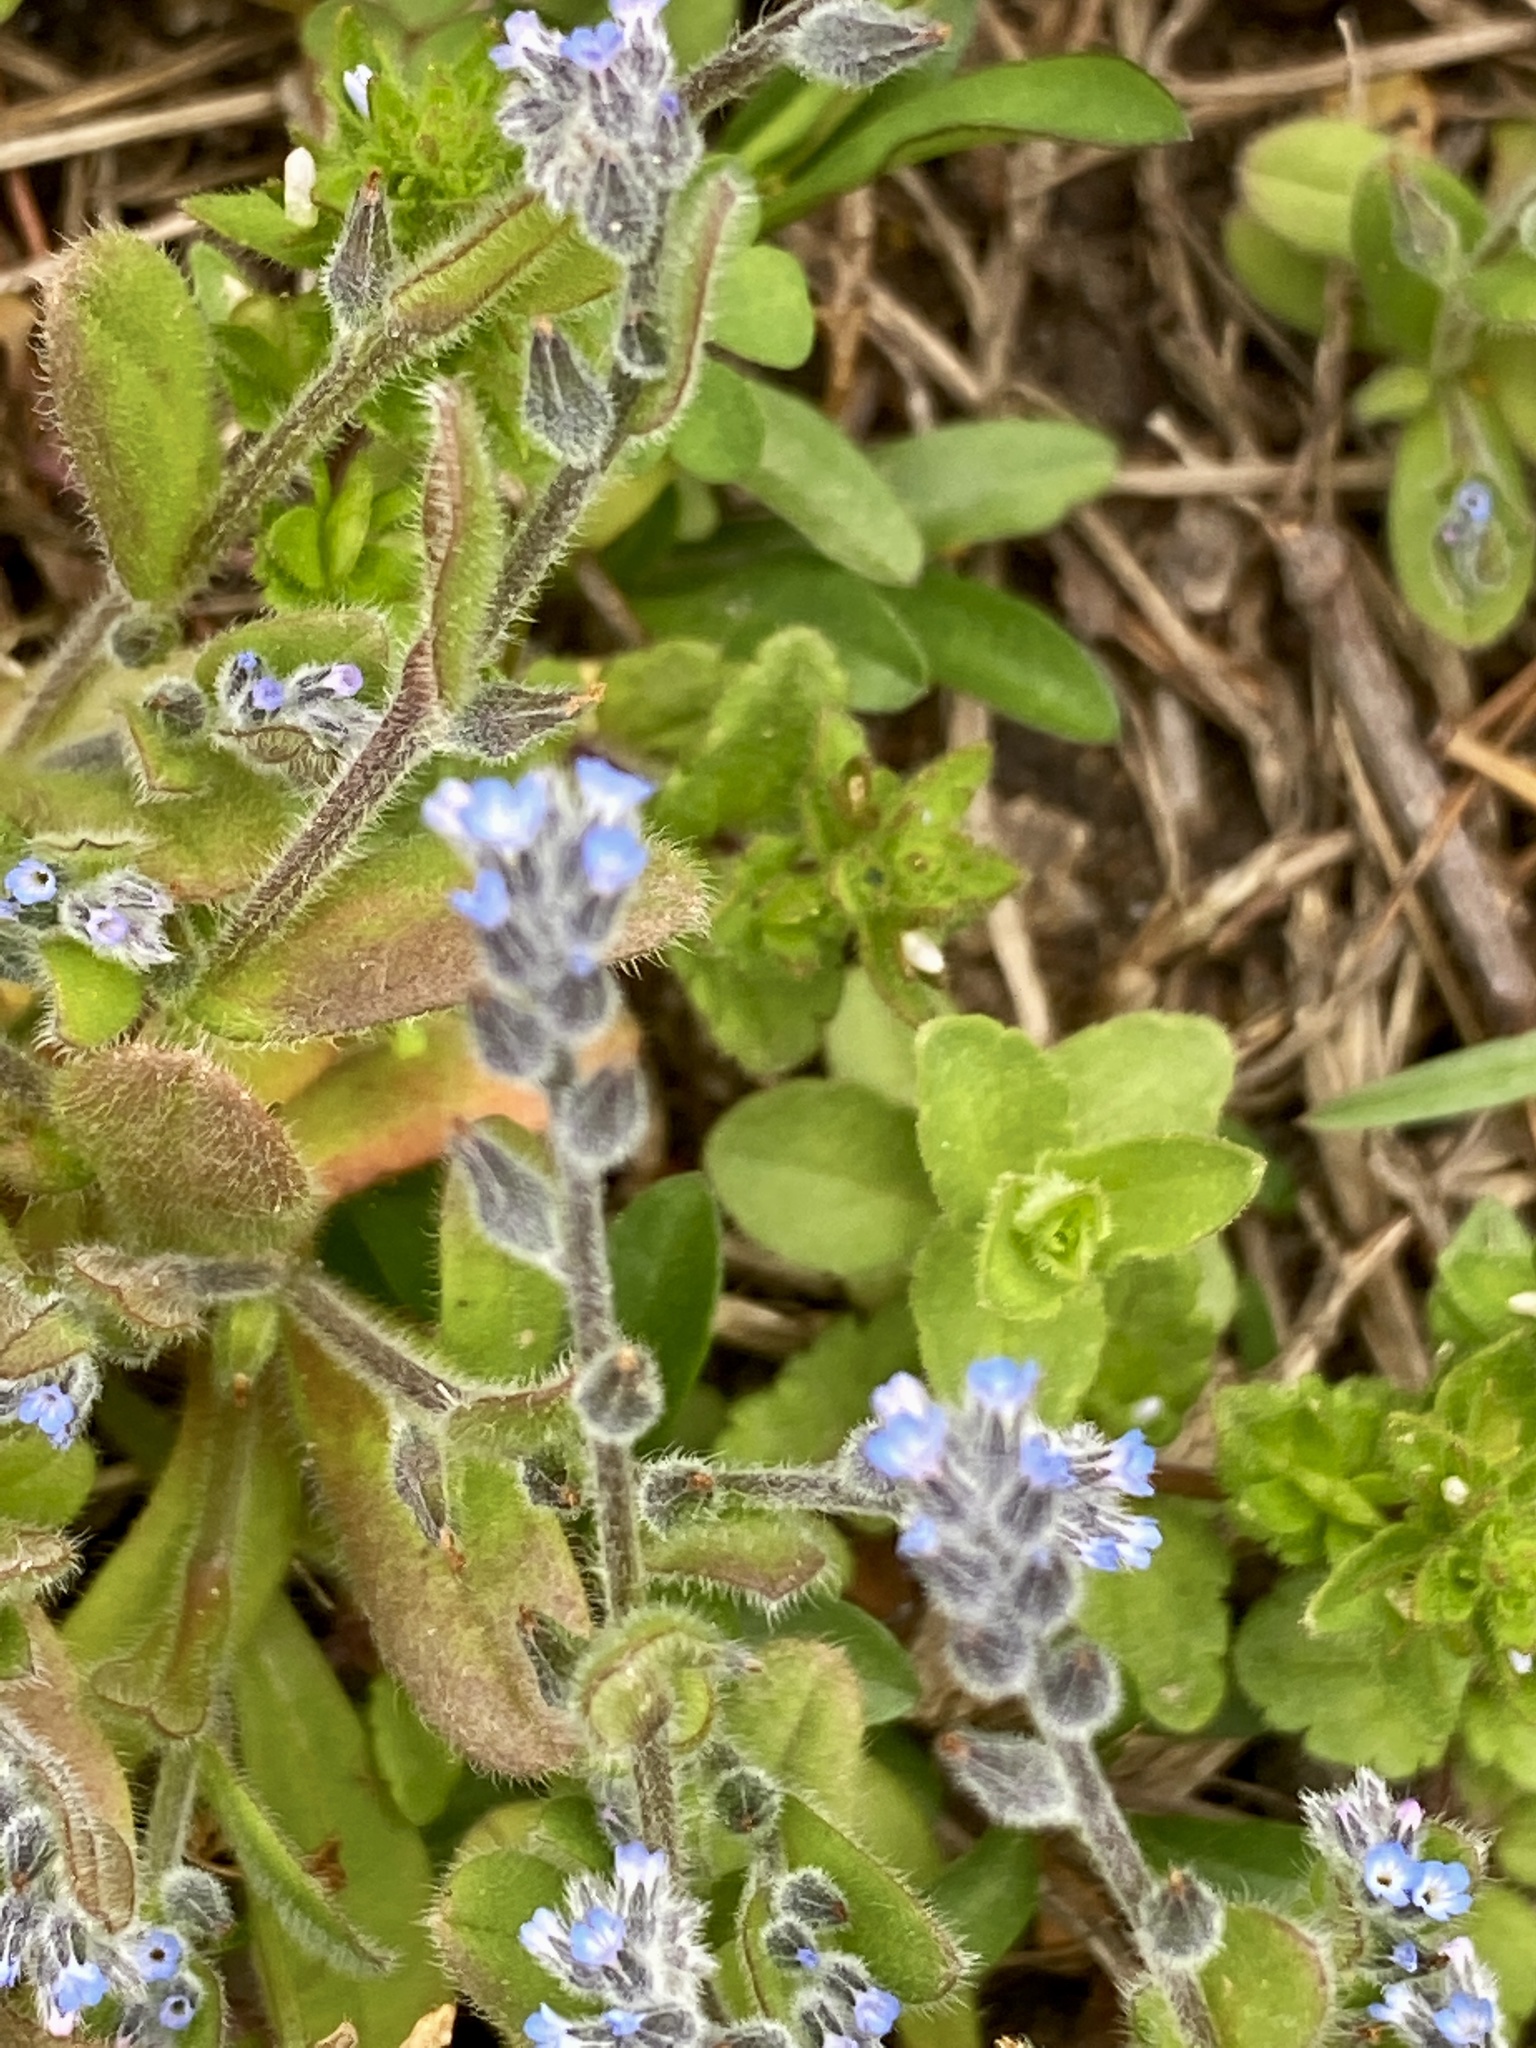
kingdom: Plantae
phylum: Tracheophyta
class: Magnoliopsida
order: Boraginales
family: Boraginaceae
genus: Myosotis
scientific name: Myosotis stricta
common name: Strict forget-me-not
